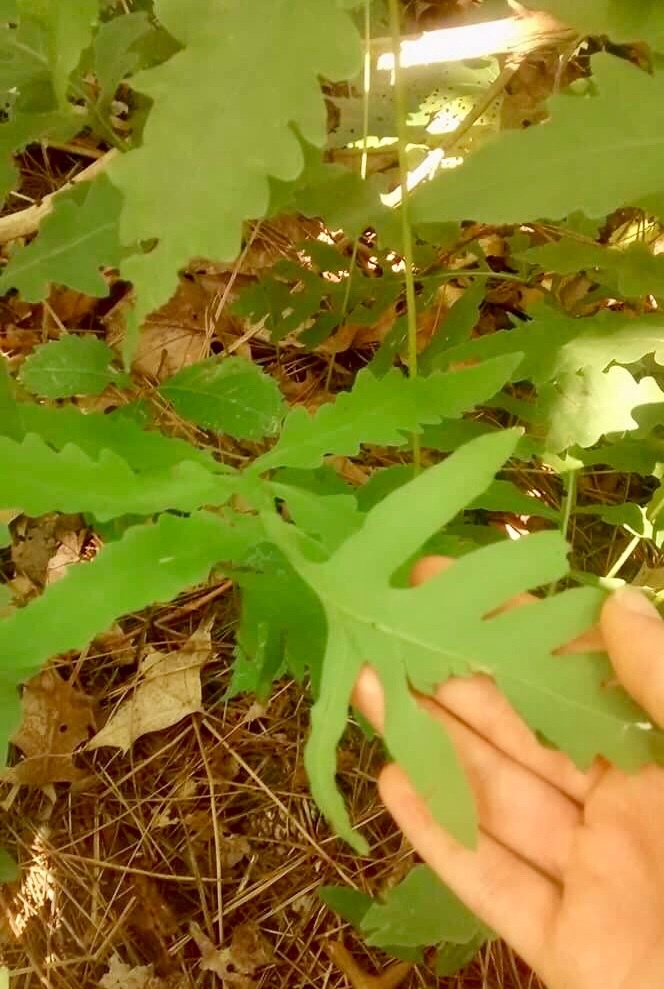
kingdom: Plantae
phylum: Tracheophyta
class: Polypodiopsida
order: Polypodiales
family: Onocleaceae
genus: Onoclea
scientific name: Onoclea sensibilis
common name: Sensitive fern
